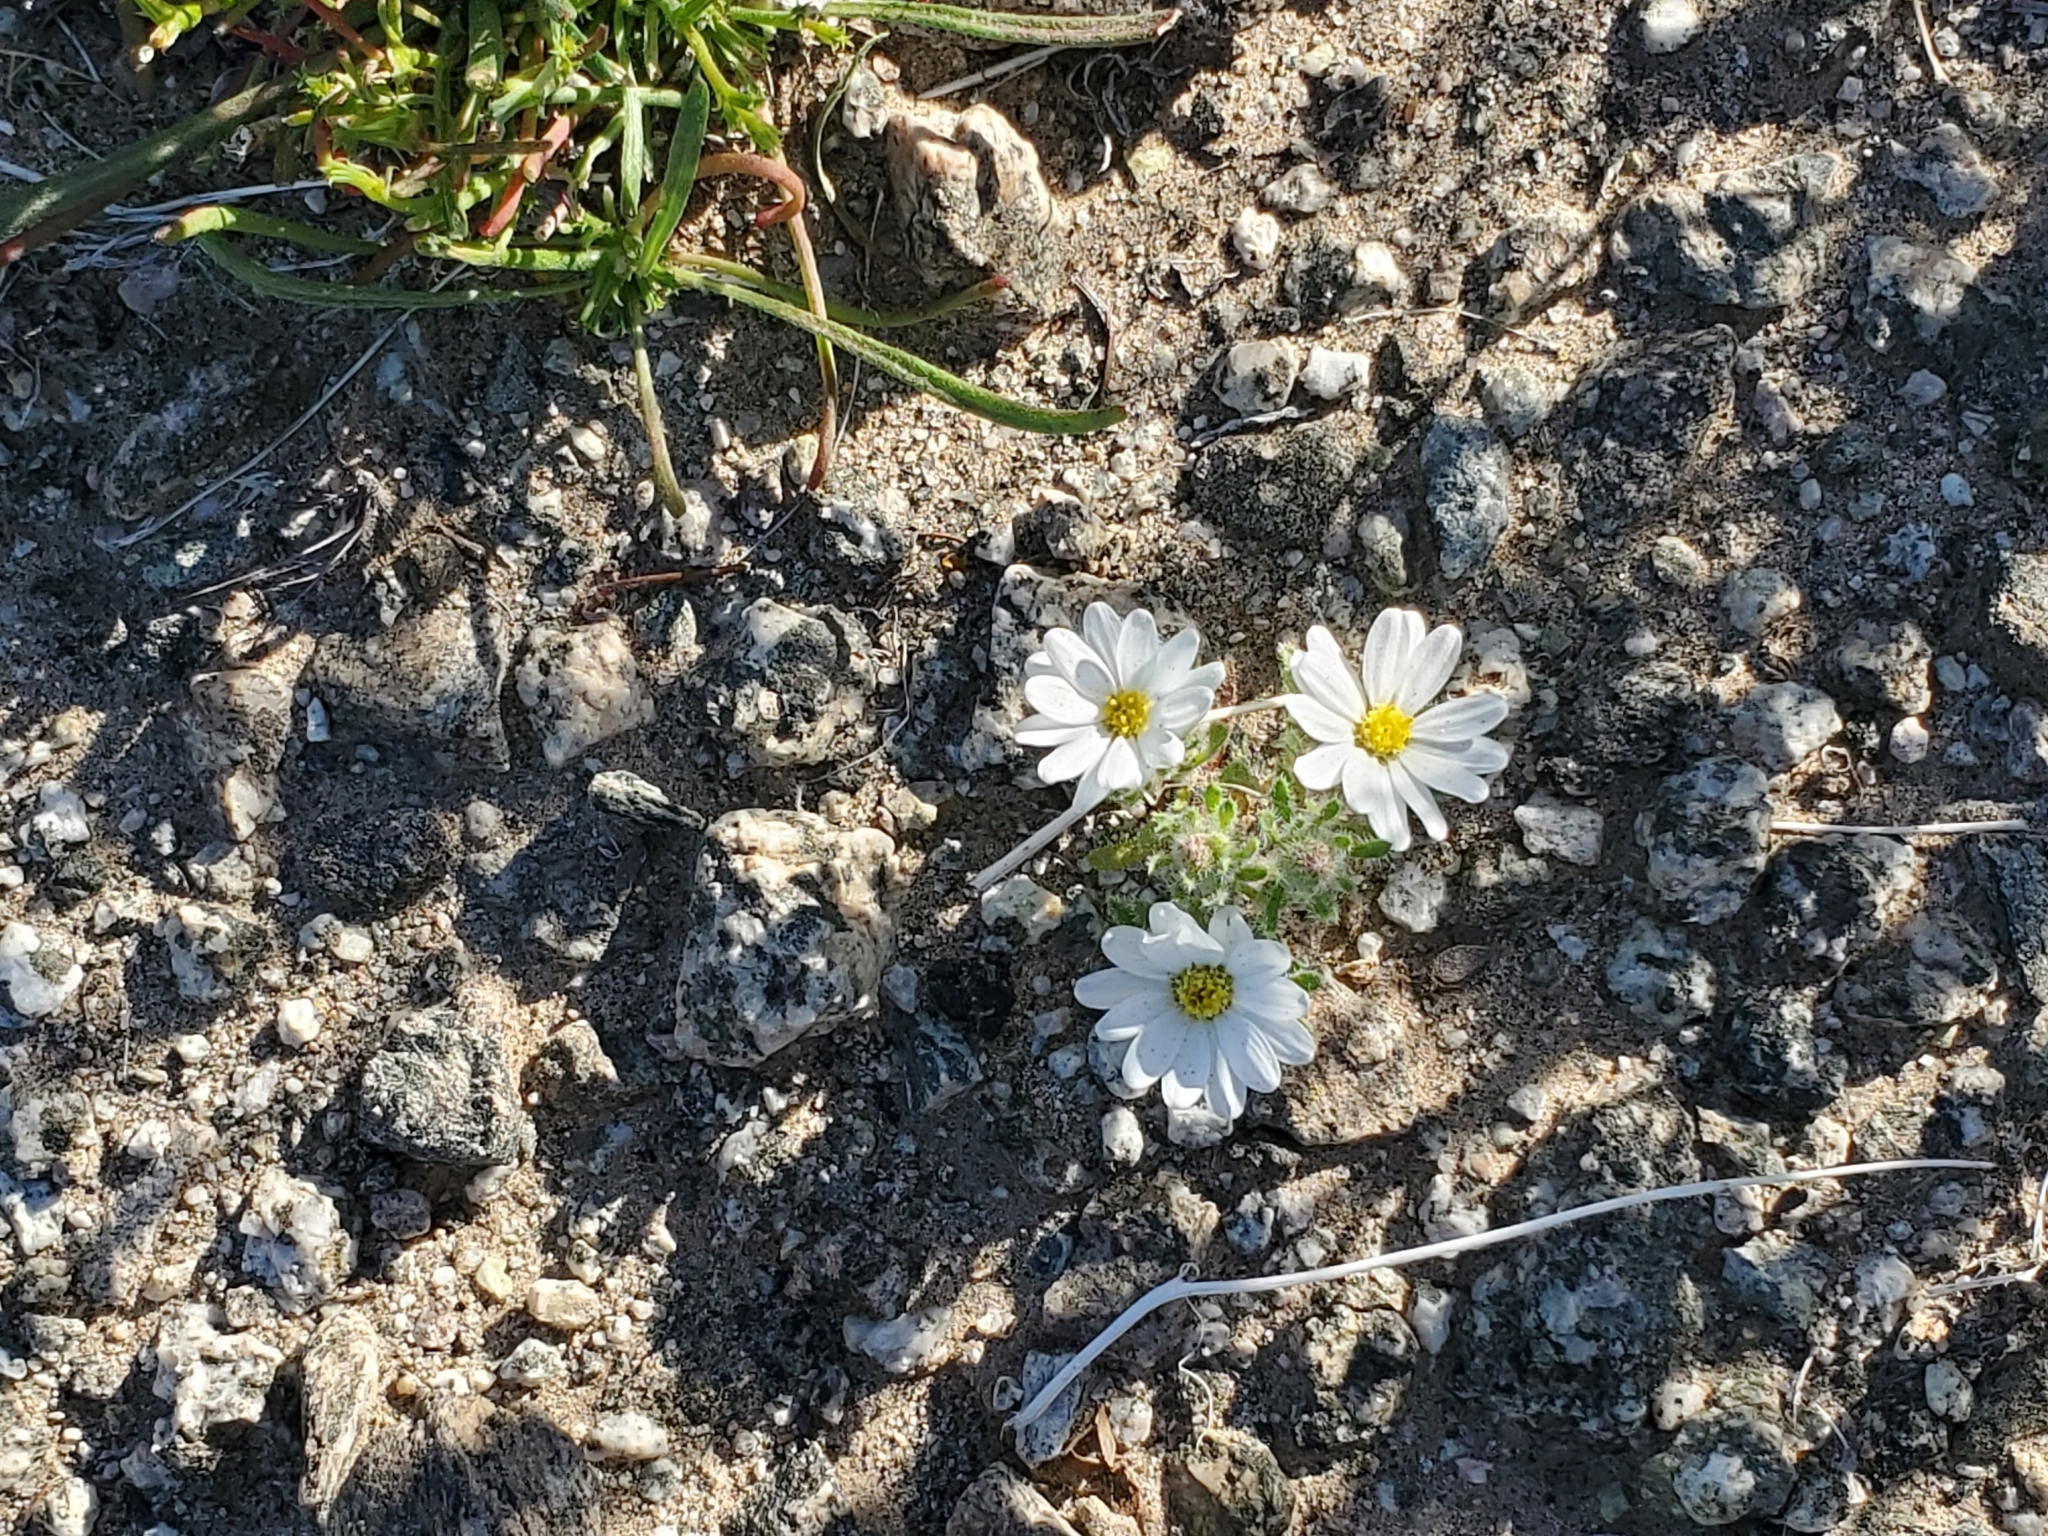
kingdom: Plantae
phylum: Tracheophyta
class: Magnoliopsida
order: Asterales
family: Asteraceae
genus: Monoptilon
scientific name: Monoptilon bellioides
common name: Bristly desertstar
